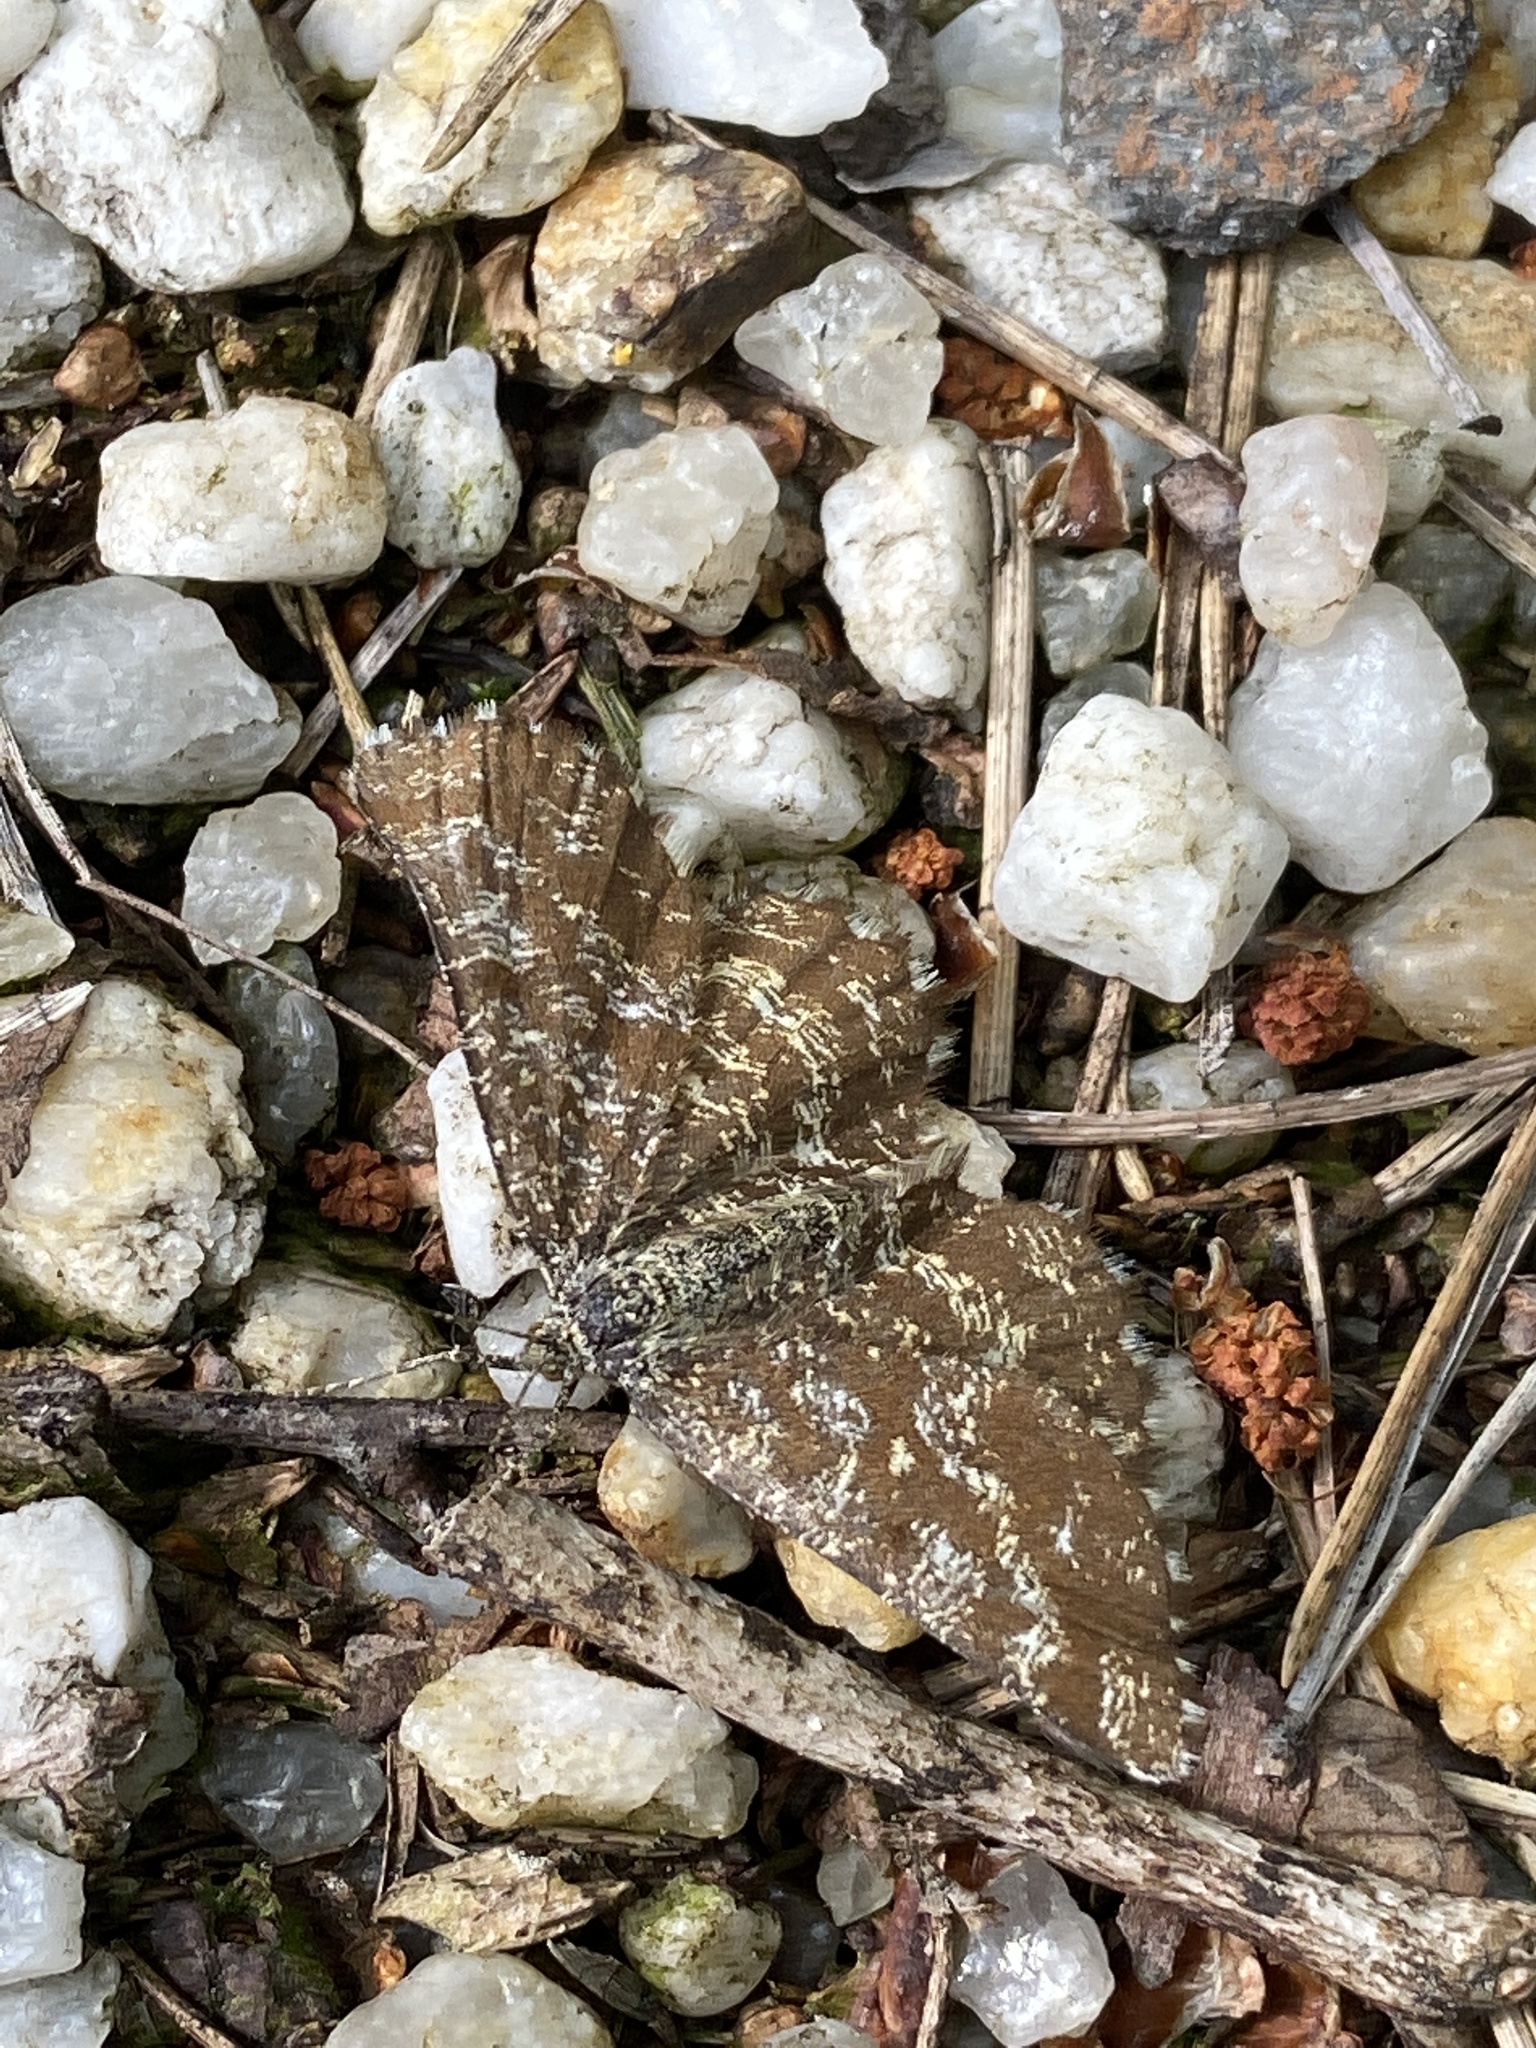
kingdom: Animalia
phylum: Arthropoda
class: Insecta
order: Lepidoptera
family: Geometridae
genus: Ematurga
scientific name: Ematurga atomaria
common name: Common heath
